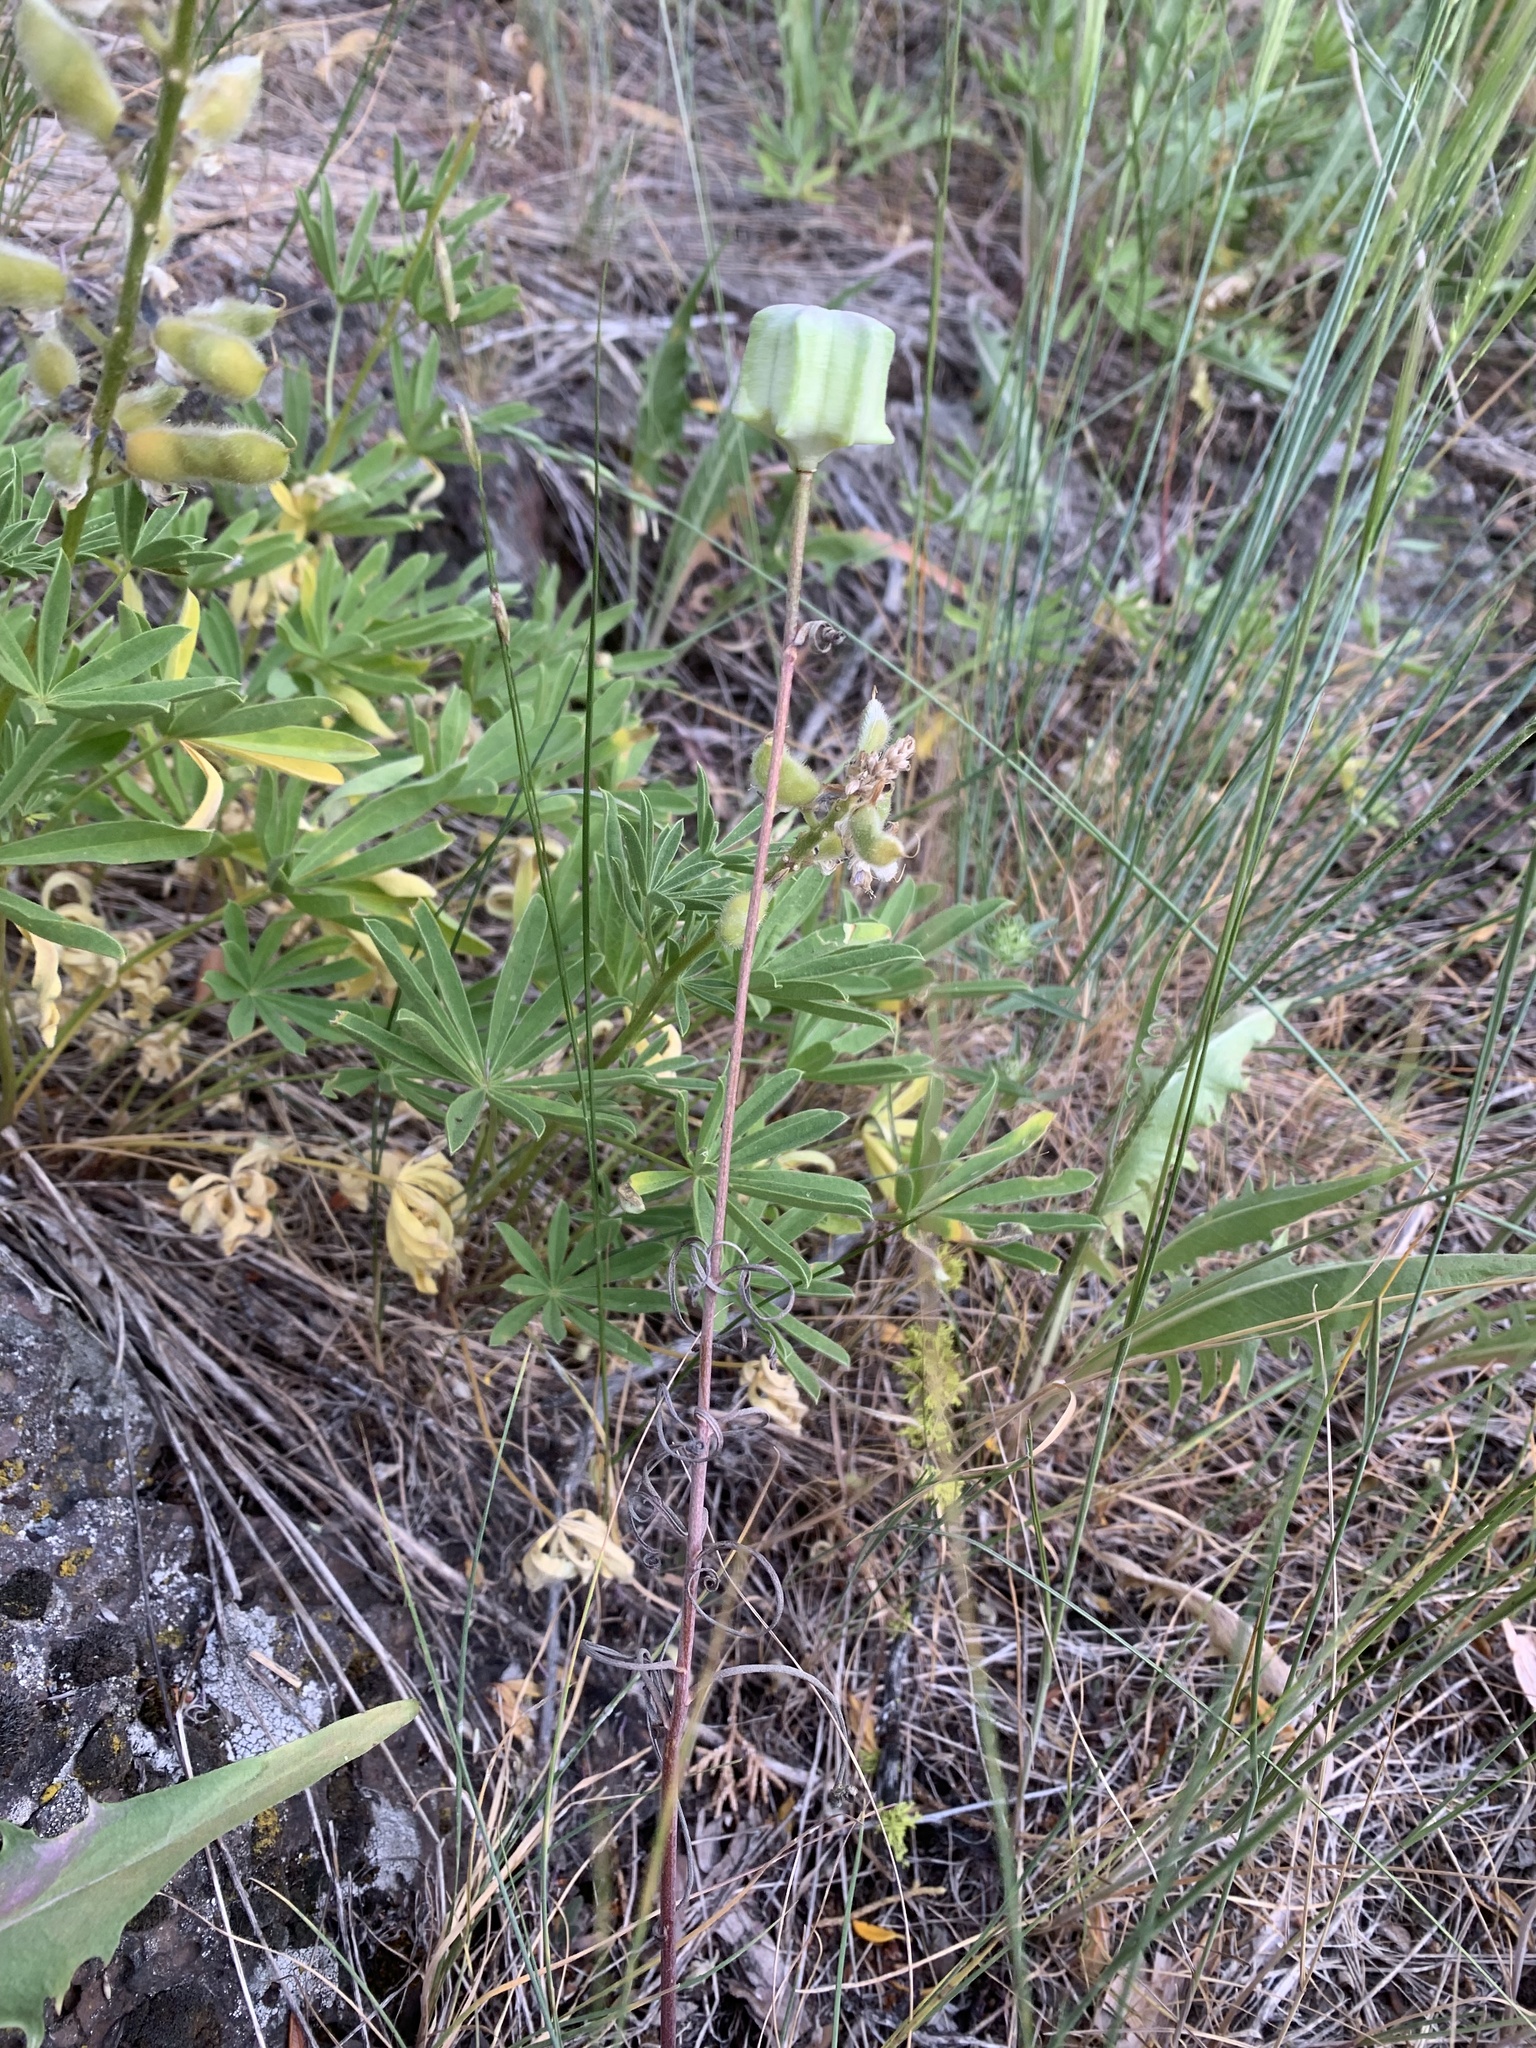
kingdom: Plantae
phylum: Tracheophyta
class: Liliopsida
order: Liliales
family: Liliaceae
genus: Fritillaria
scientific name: Fritillaria atropurpurea
